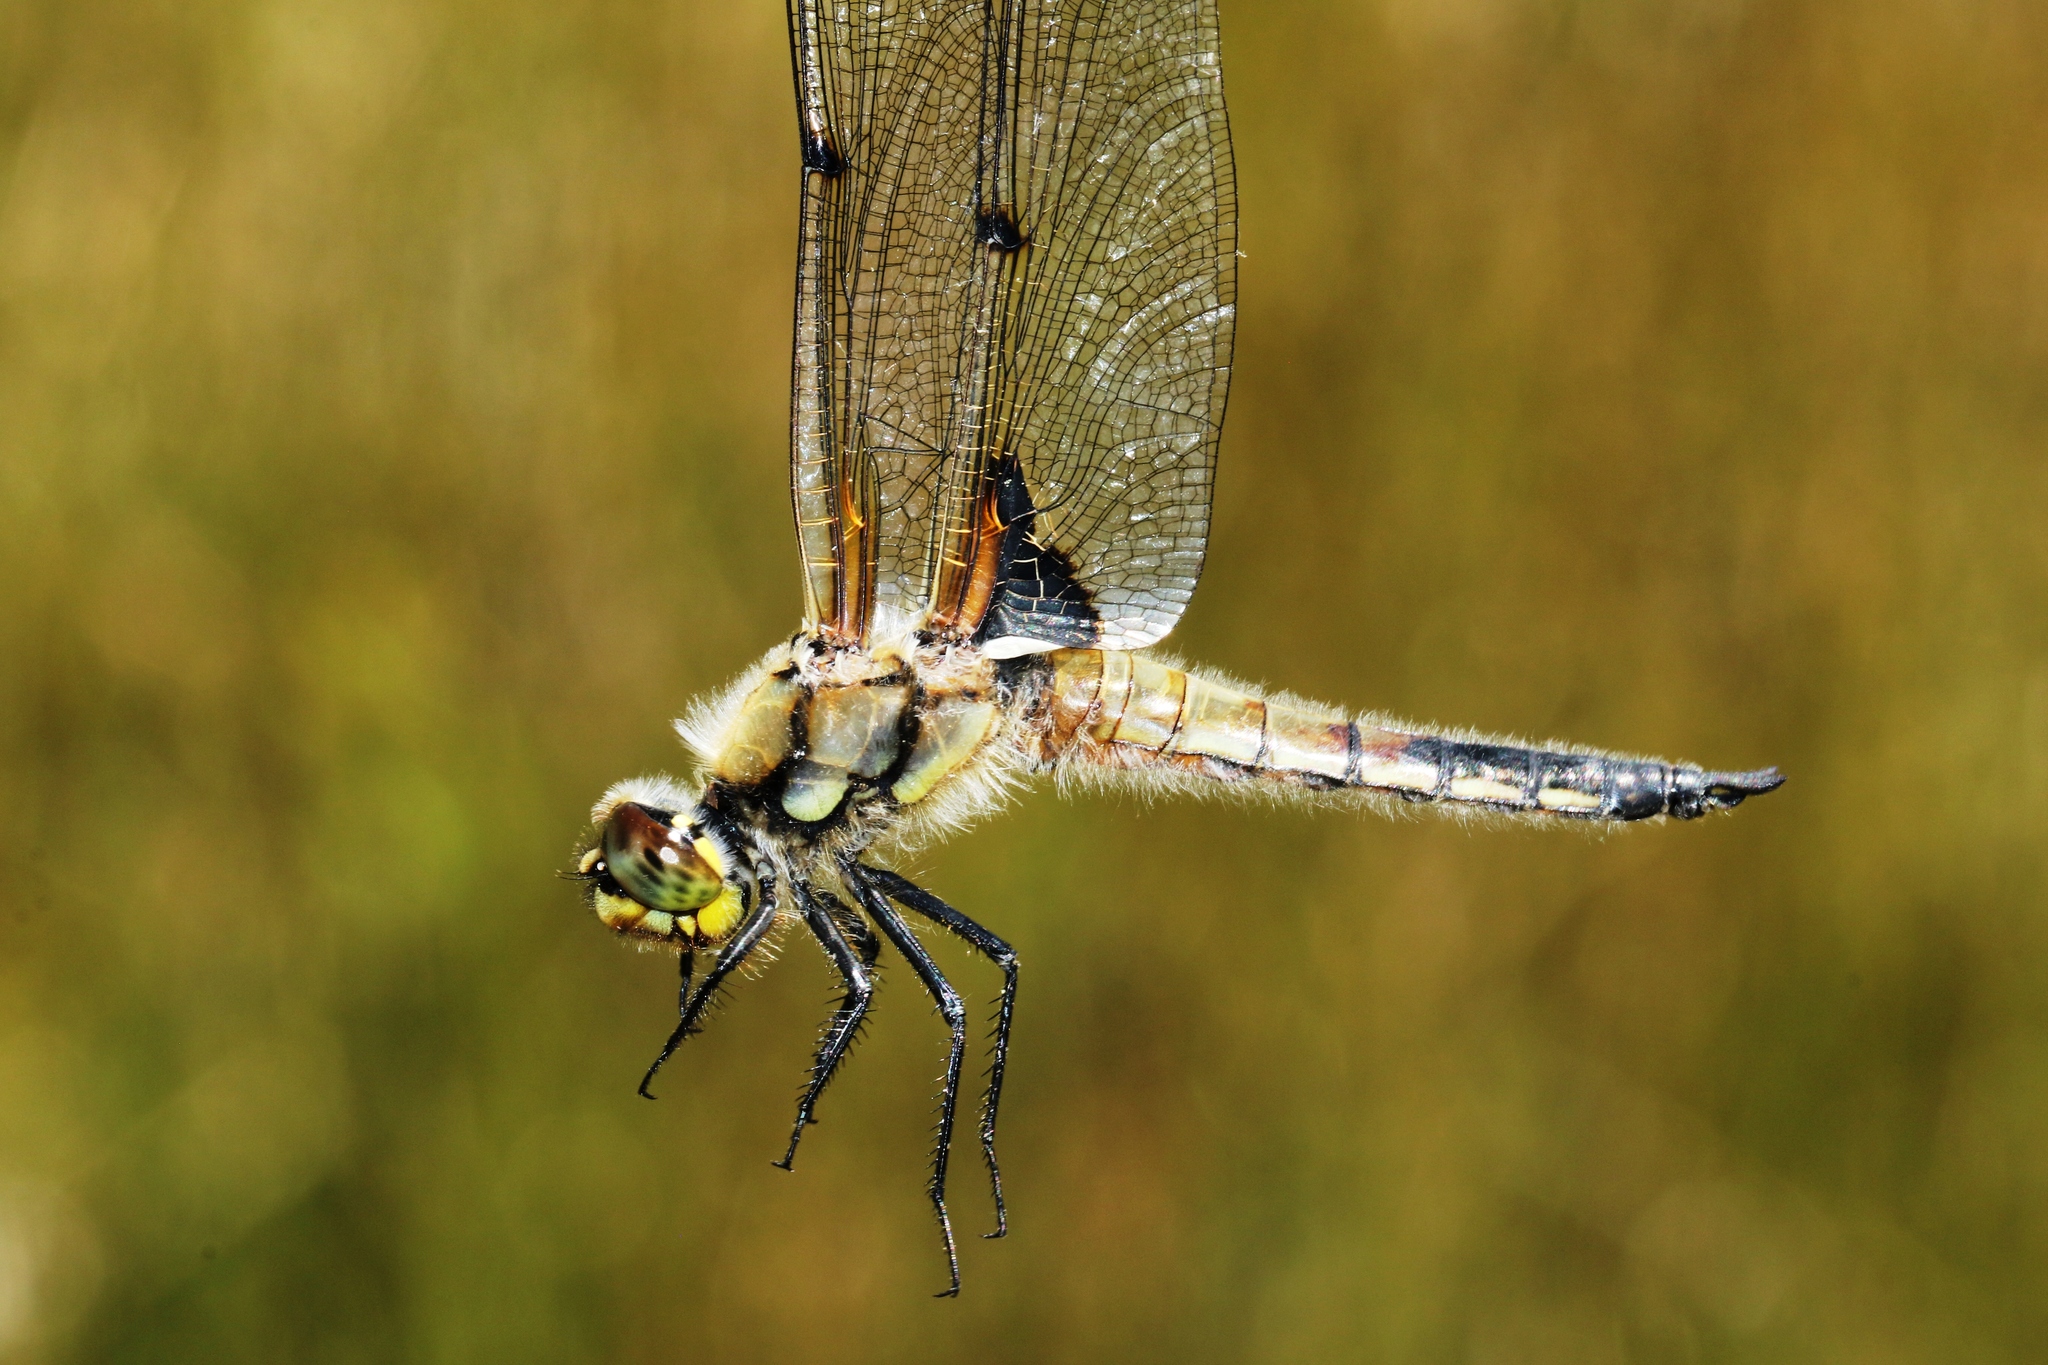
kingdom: Animalia
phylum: Arthropoda
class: Insecta
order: Odonata
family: Libellulidae
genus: Libellula
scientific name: Libellula quadrimaculata
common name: Four-spotted chaser
